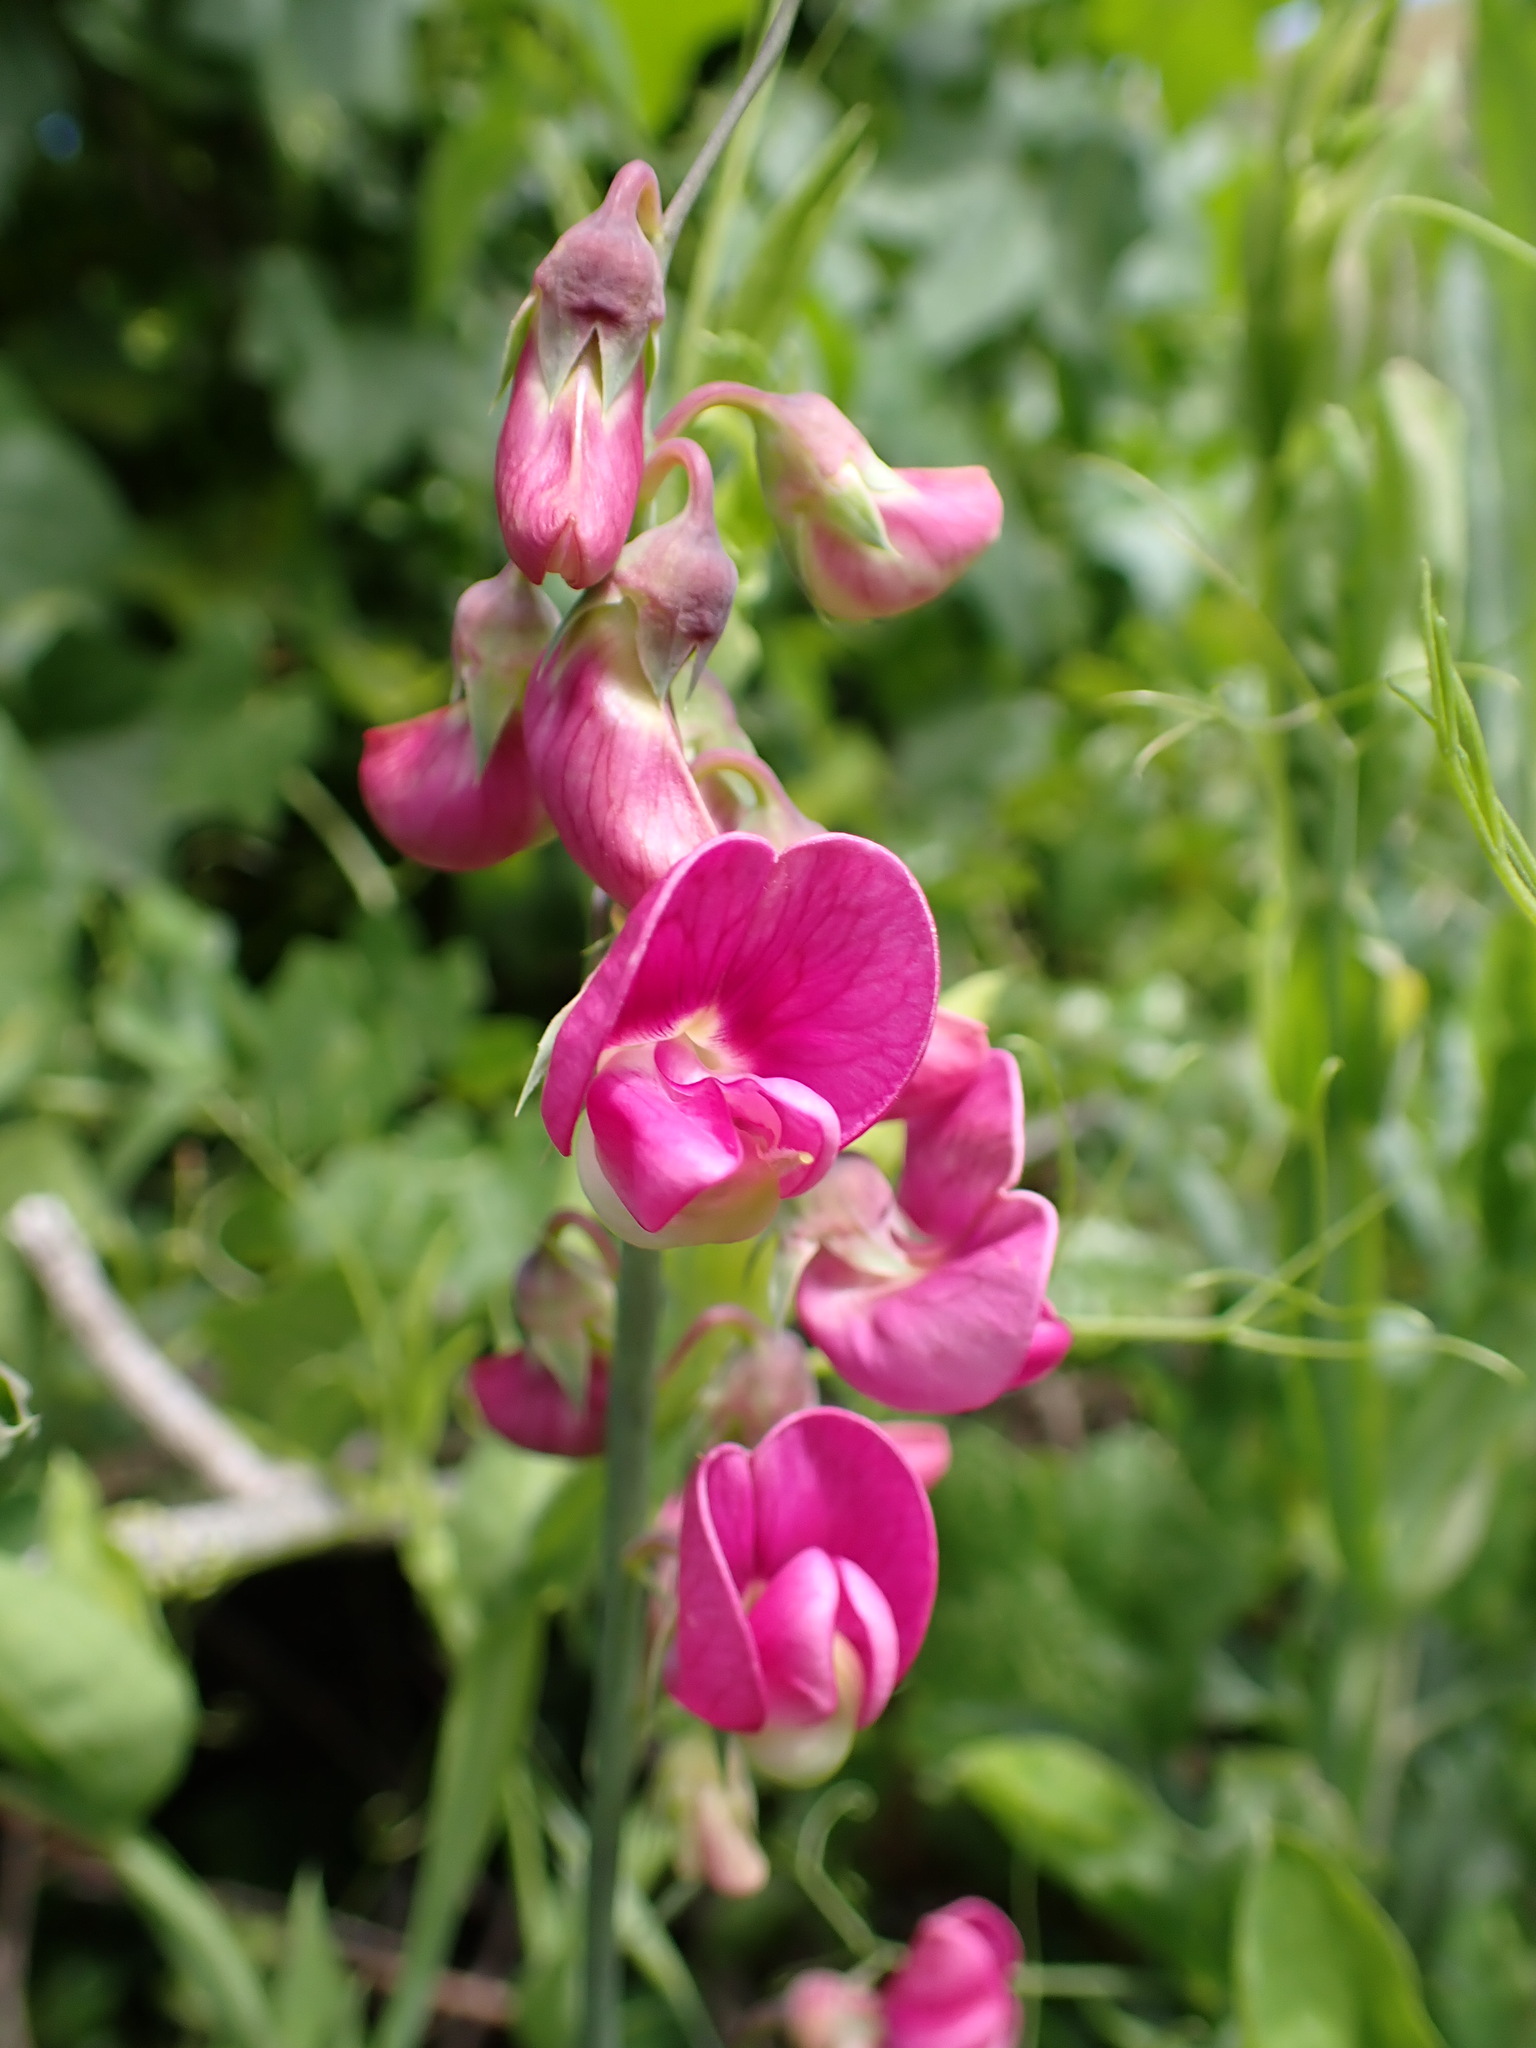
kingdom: Plantae
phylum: Tracheophyta
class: Magnoliopsida
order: Fabales
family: Fabaceae
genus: Lathyrus
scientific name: Lathyrus latifolius
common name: Perennial pea
